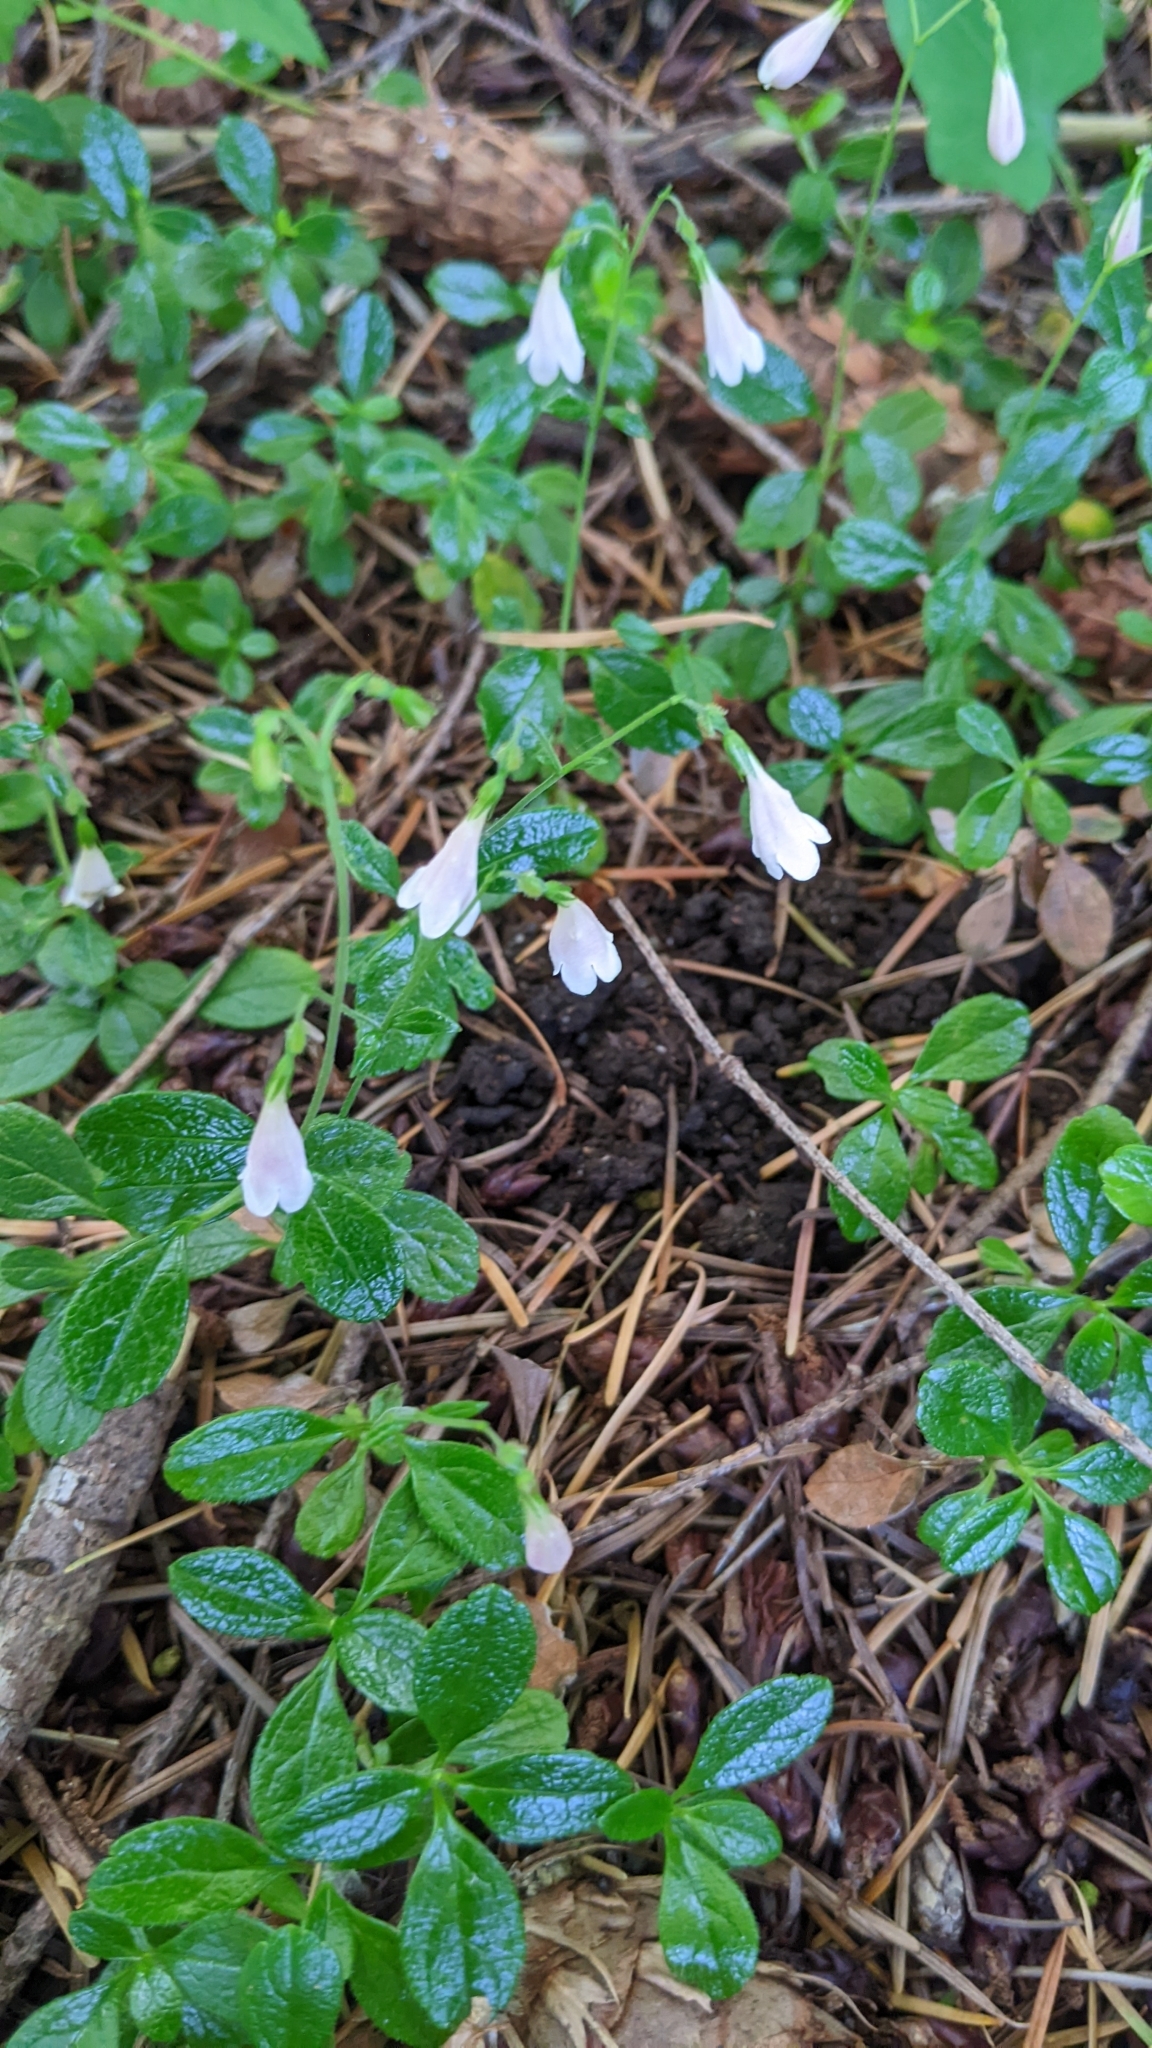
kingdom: Plantae
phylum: Tracheophyta
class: Magnoliopsida
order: Dipsacales
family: Caprifoliaceae
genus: Linnaea
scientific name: Linnaea borealis
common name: Twinflower
